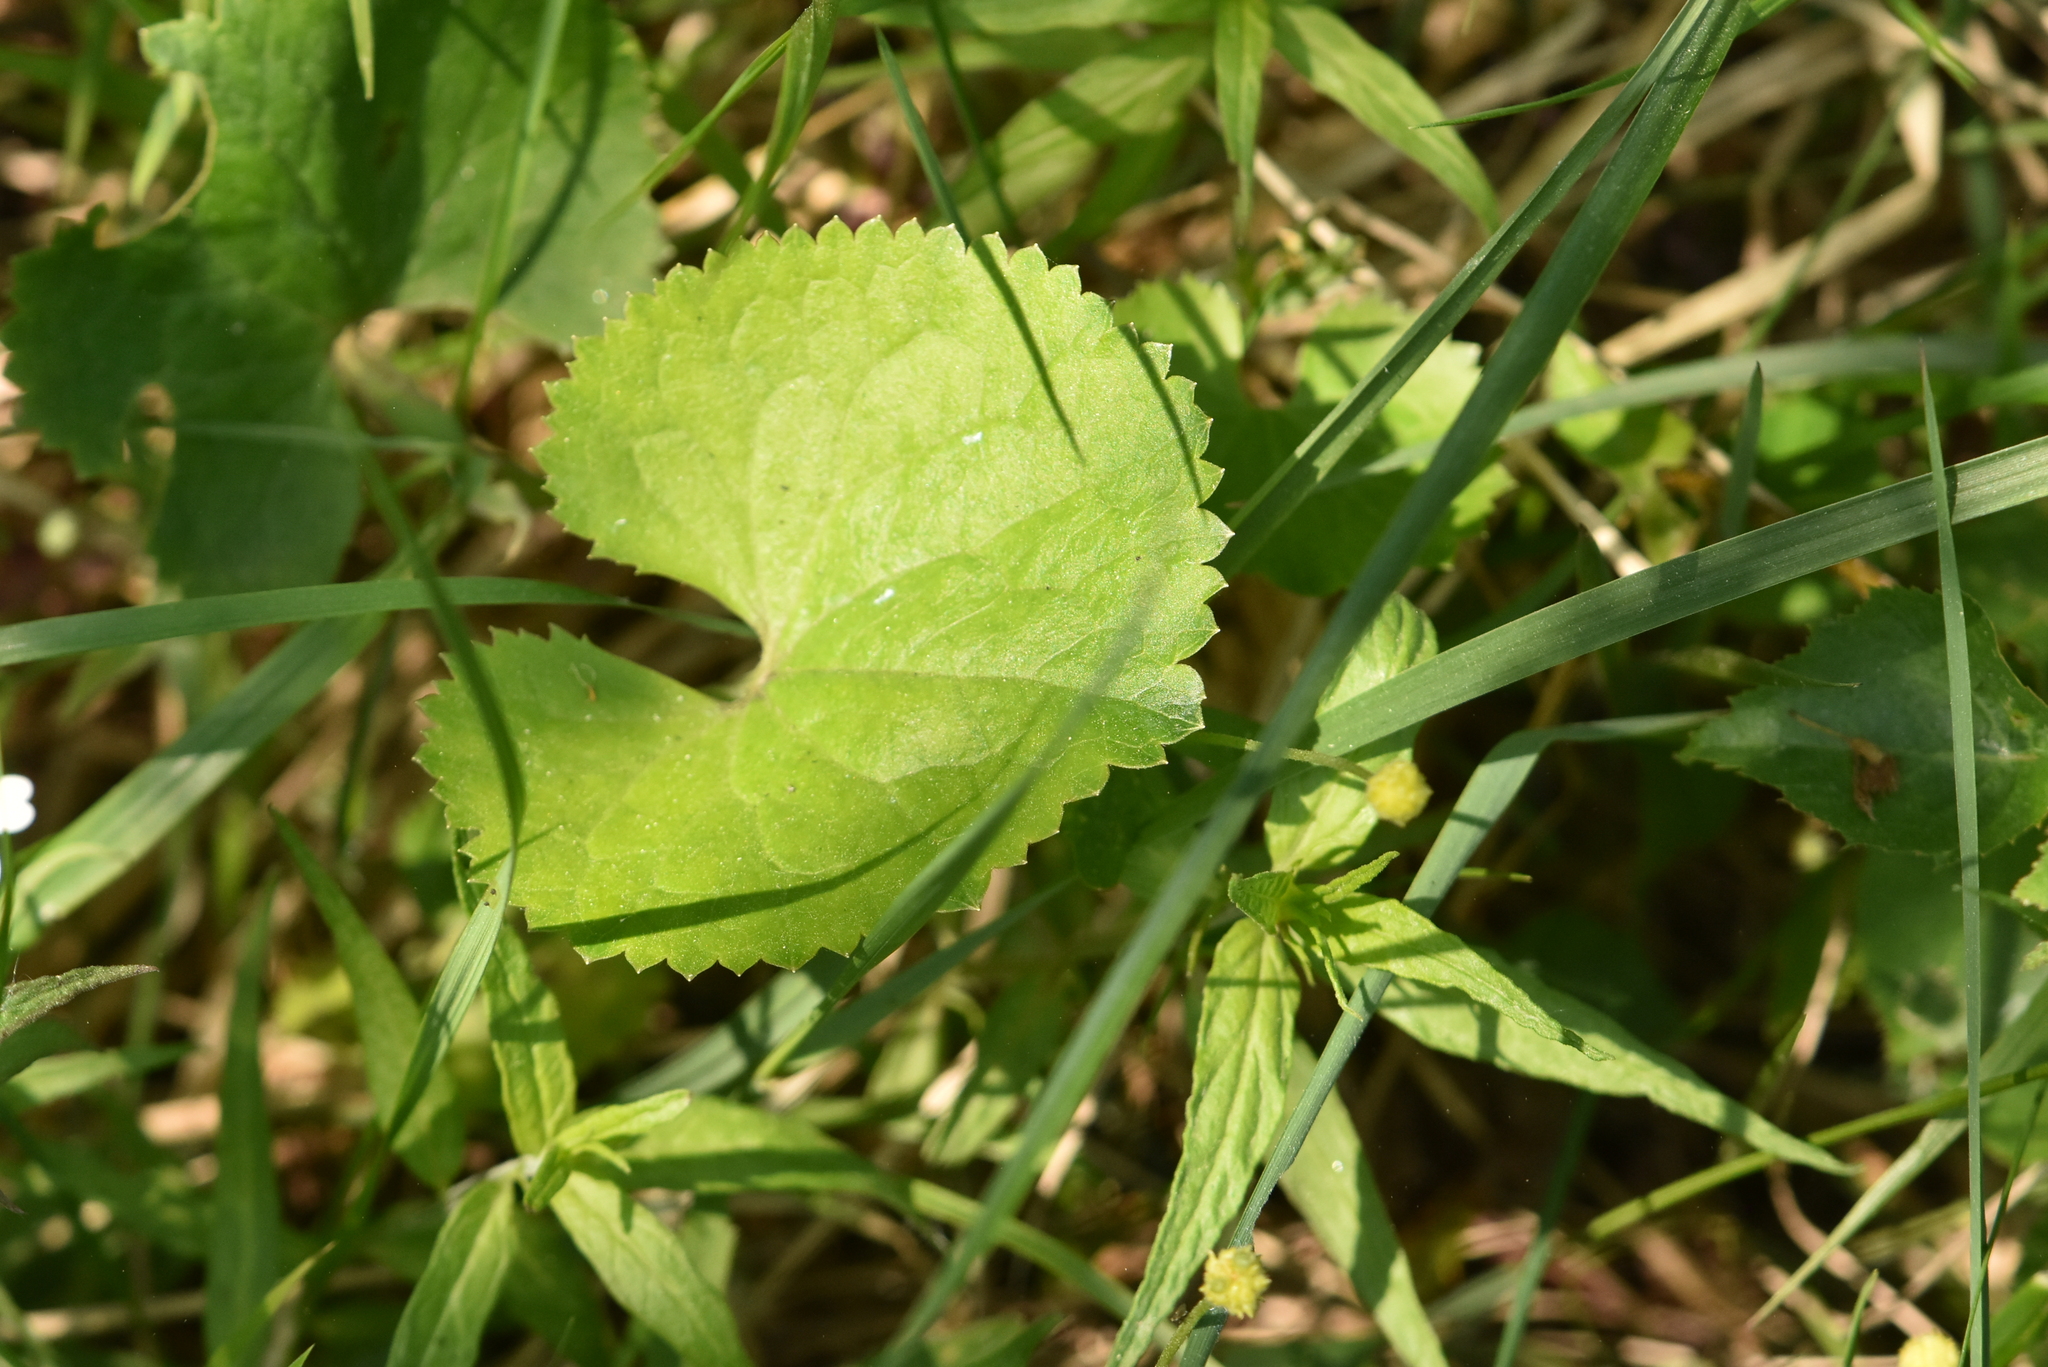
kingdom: Plantae
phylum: Tracheophyta
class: Magnoliopsida
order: Ranunculales
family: Ranunculaceae
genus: Ranunculus
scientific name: Ranunculus cassubicus
